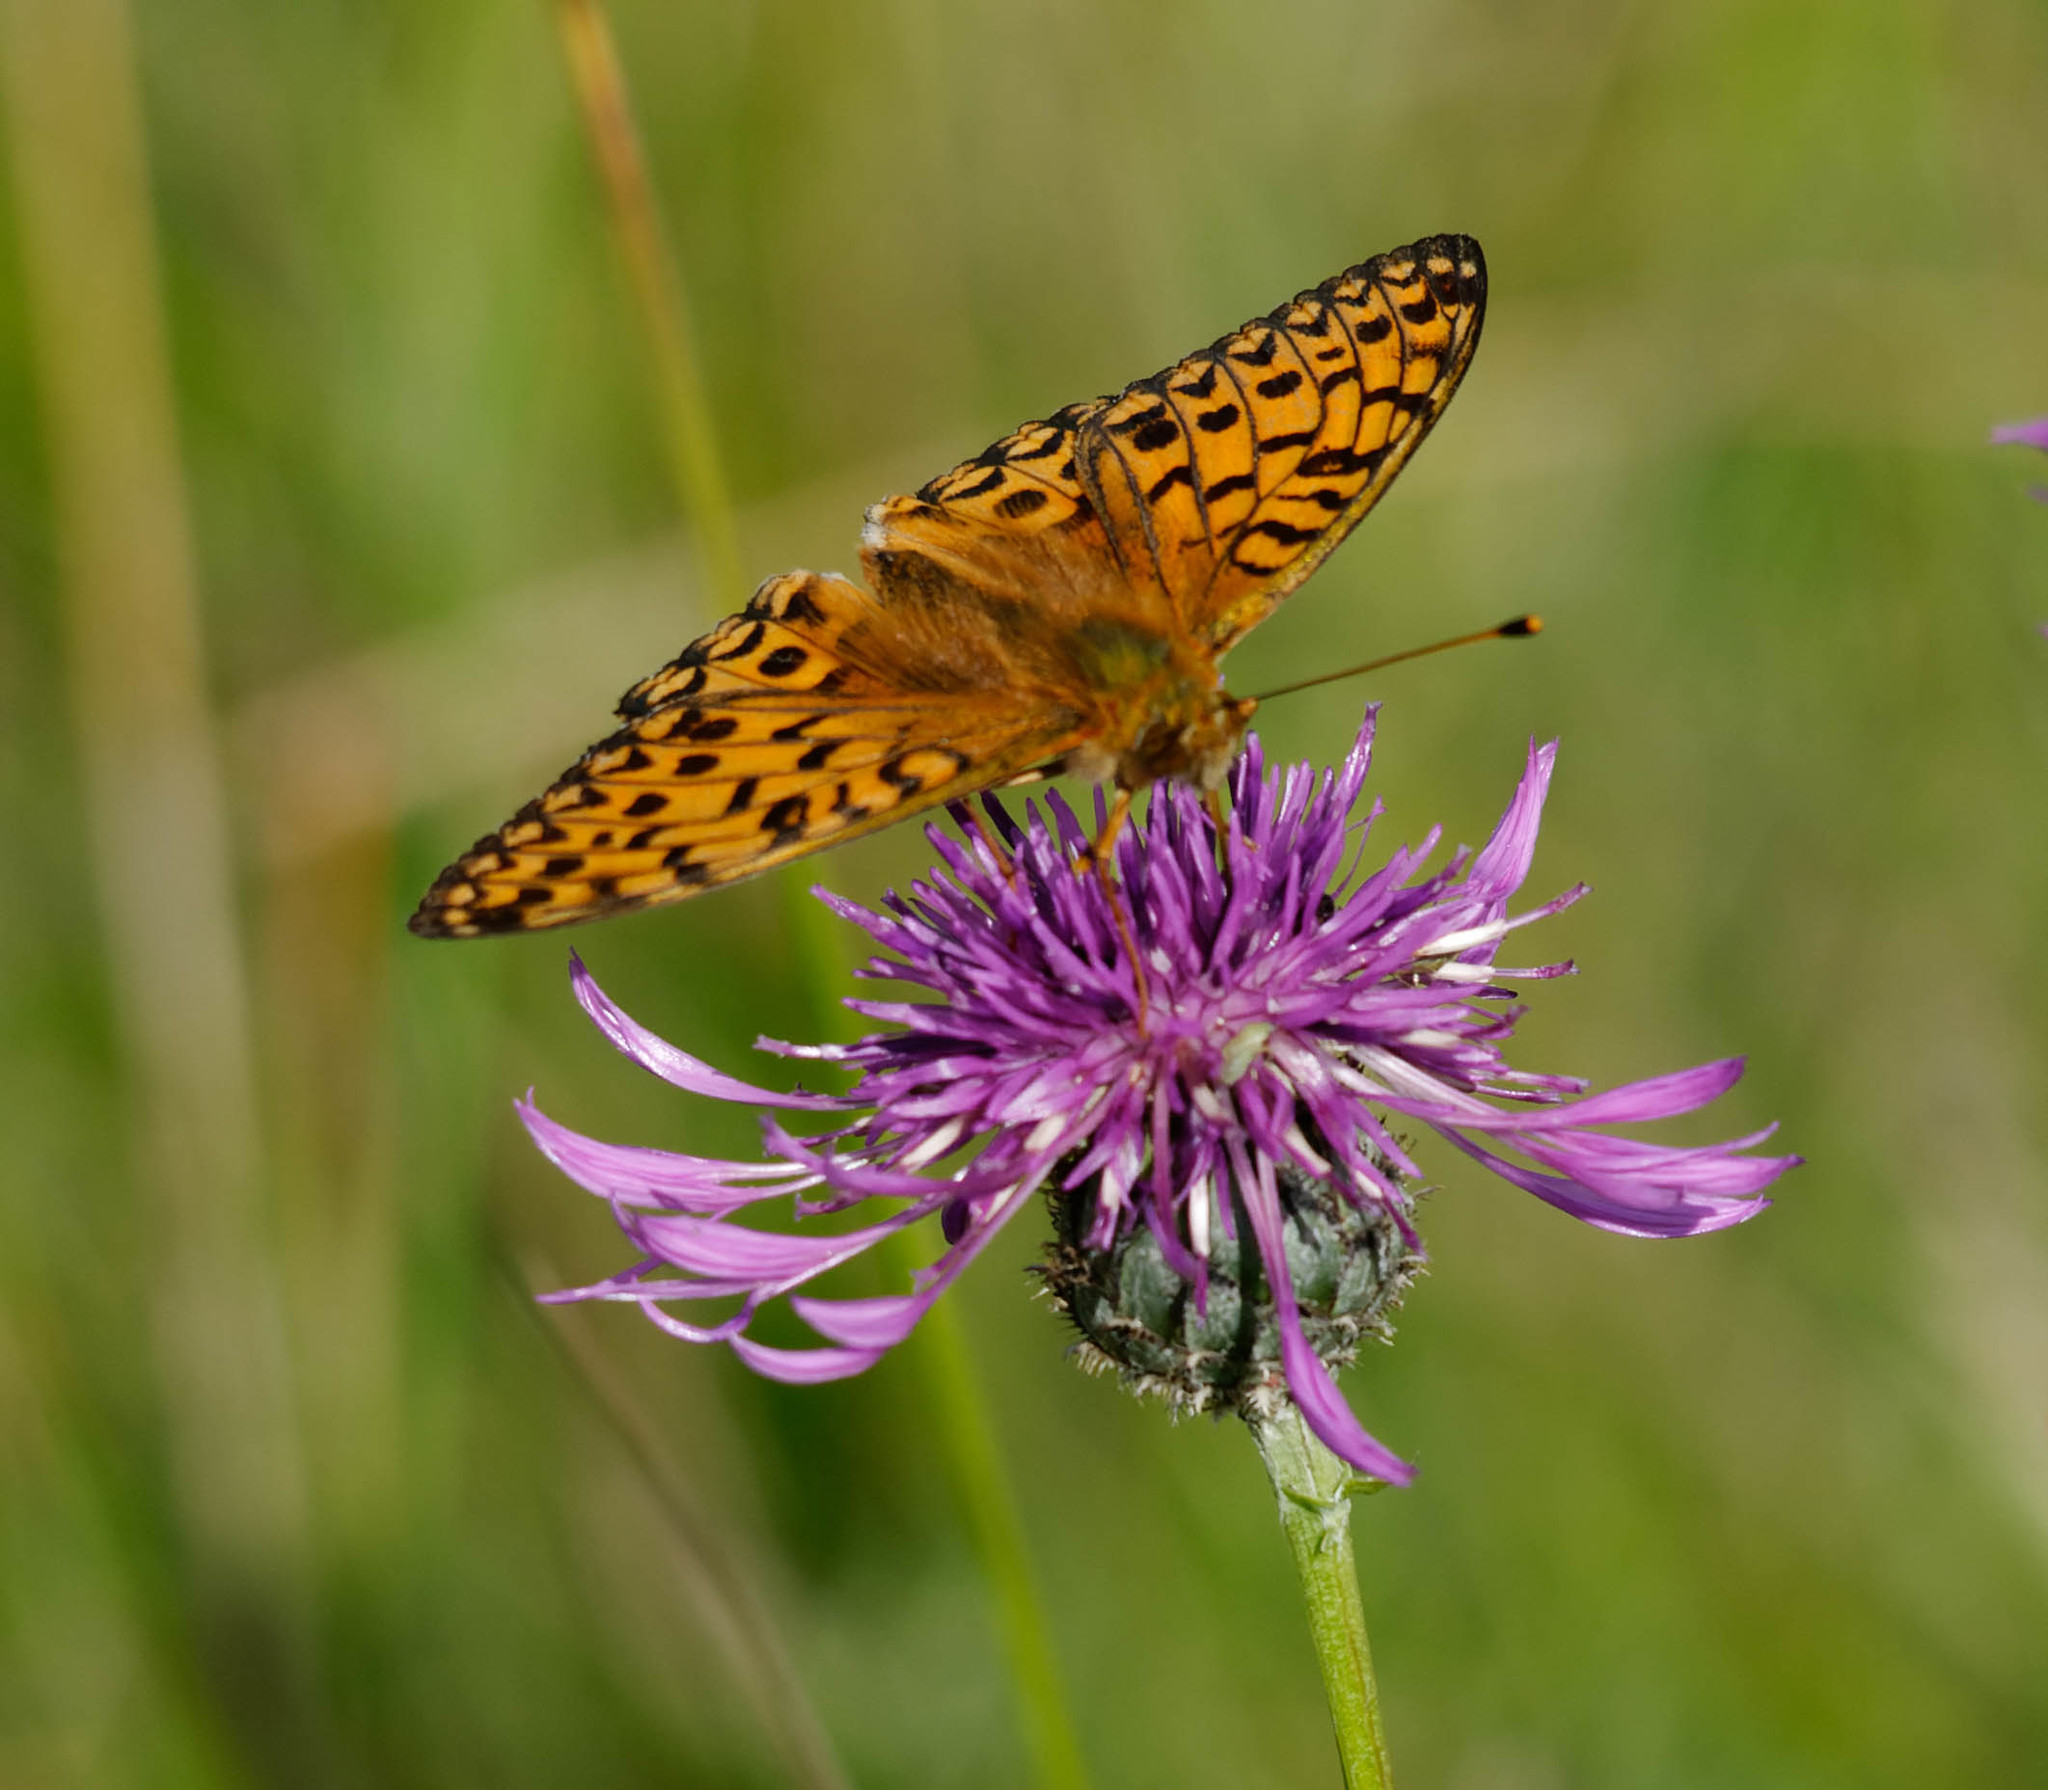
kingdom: Animalia
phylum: Arthropoda
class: Insecta
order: Lepidoptera
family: Nymphalidae
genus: Speyeria
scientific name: Speyeria aglaja
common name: Dark green fritillary
